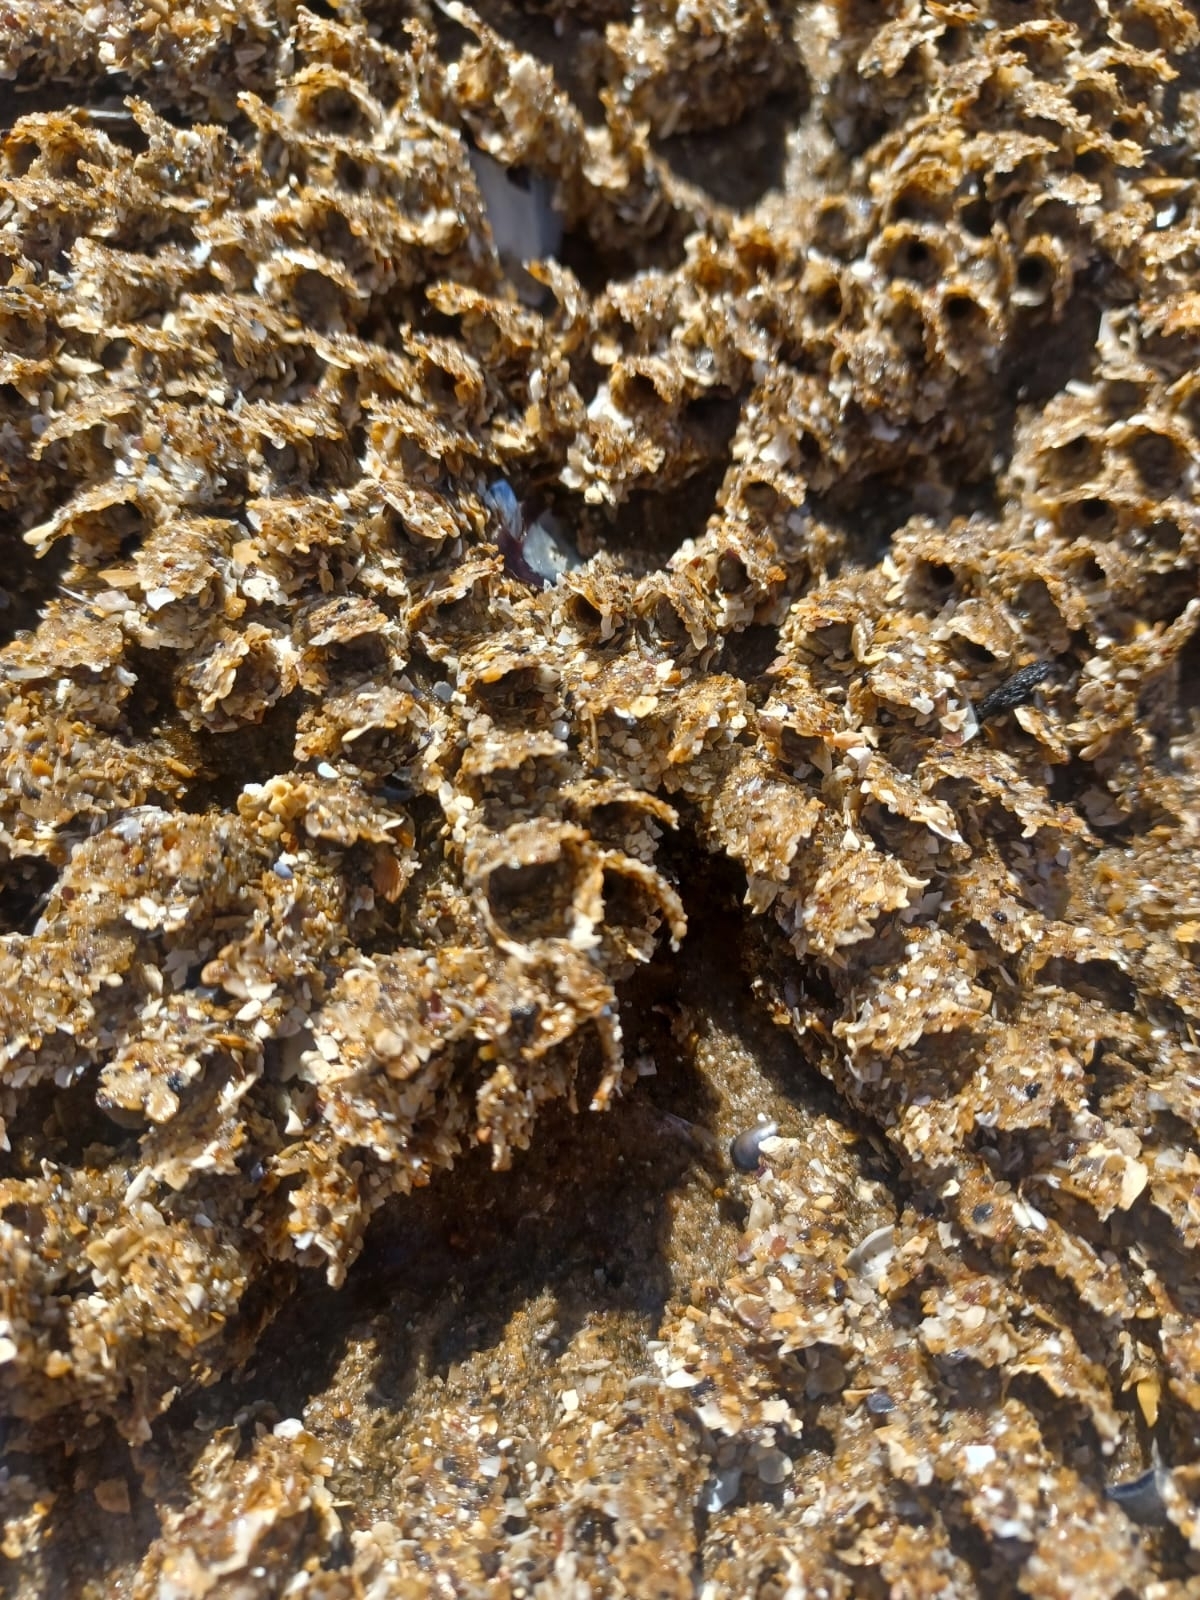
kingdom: Animalia
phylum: Annelida
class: Polychaeta
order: Sabellida
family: Sabellariidae
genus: Sabellaria
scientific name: Sabellaria alveolata
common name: Honeycomb worm
